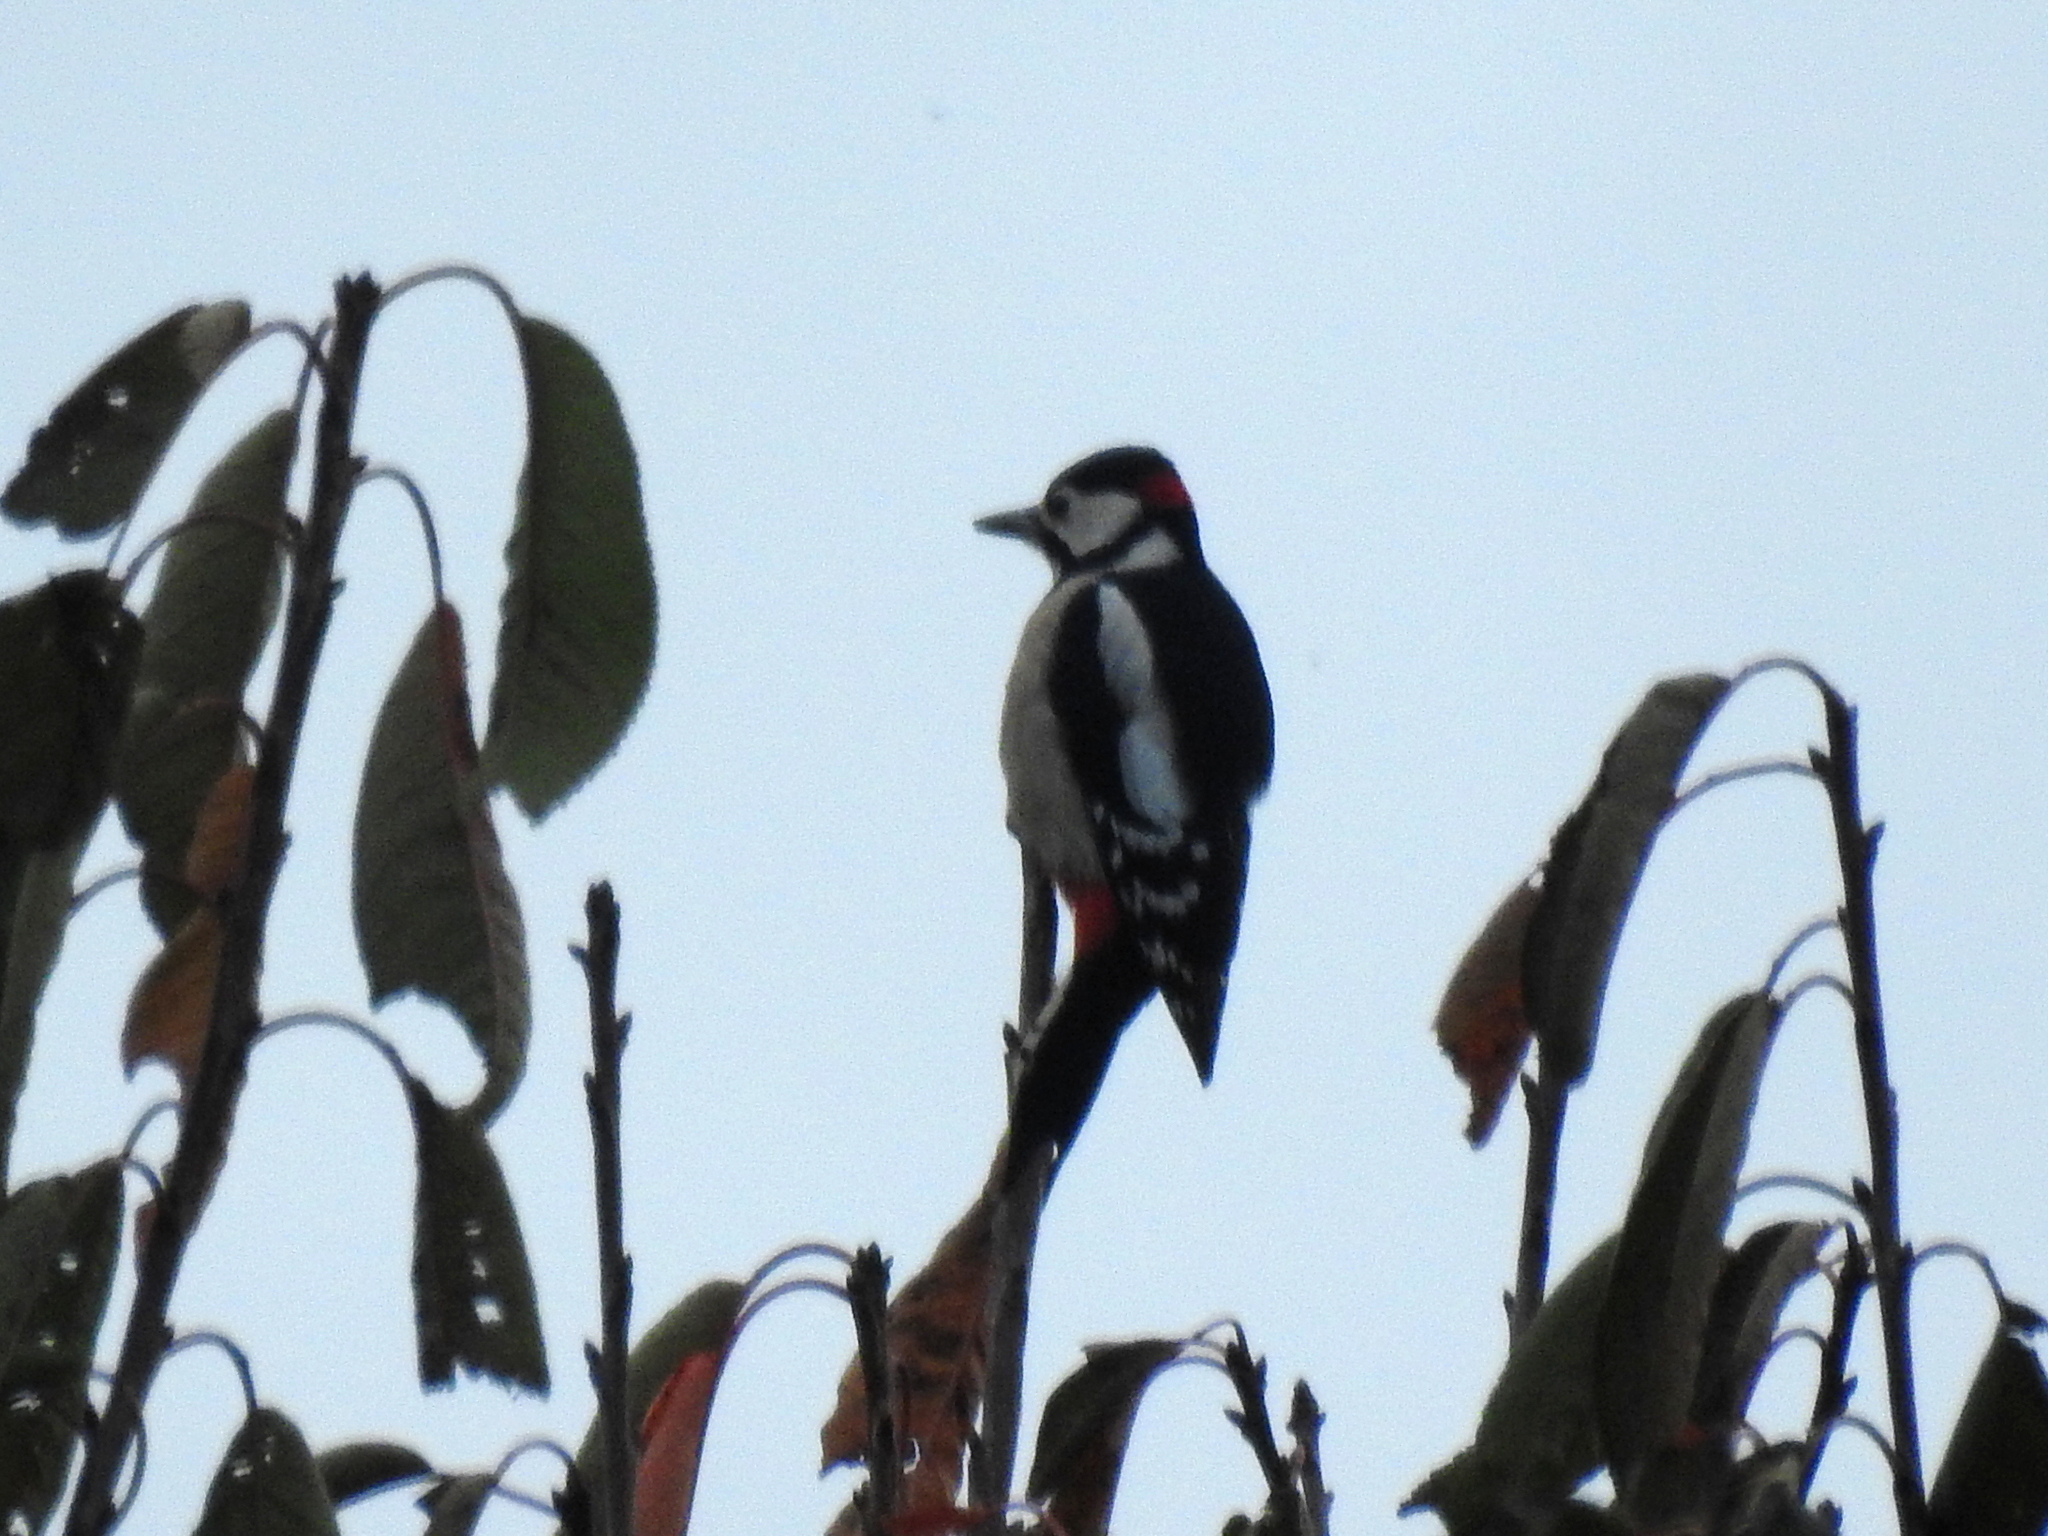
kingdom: Animalia
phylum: Chordata
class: Aves
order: Piciformes
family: Picidae
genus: Dendrocopos
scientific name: Dendrocopos major
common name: Great spotted woodpecker
